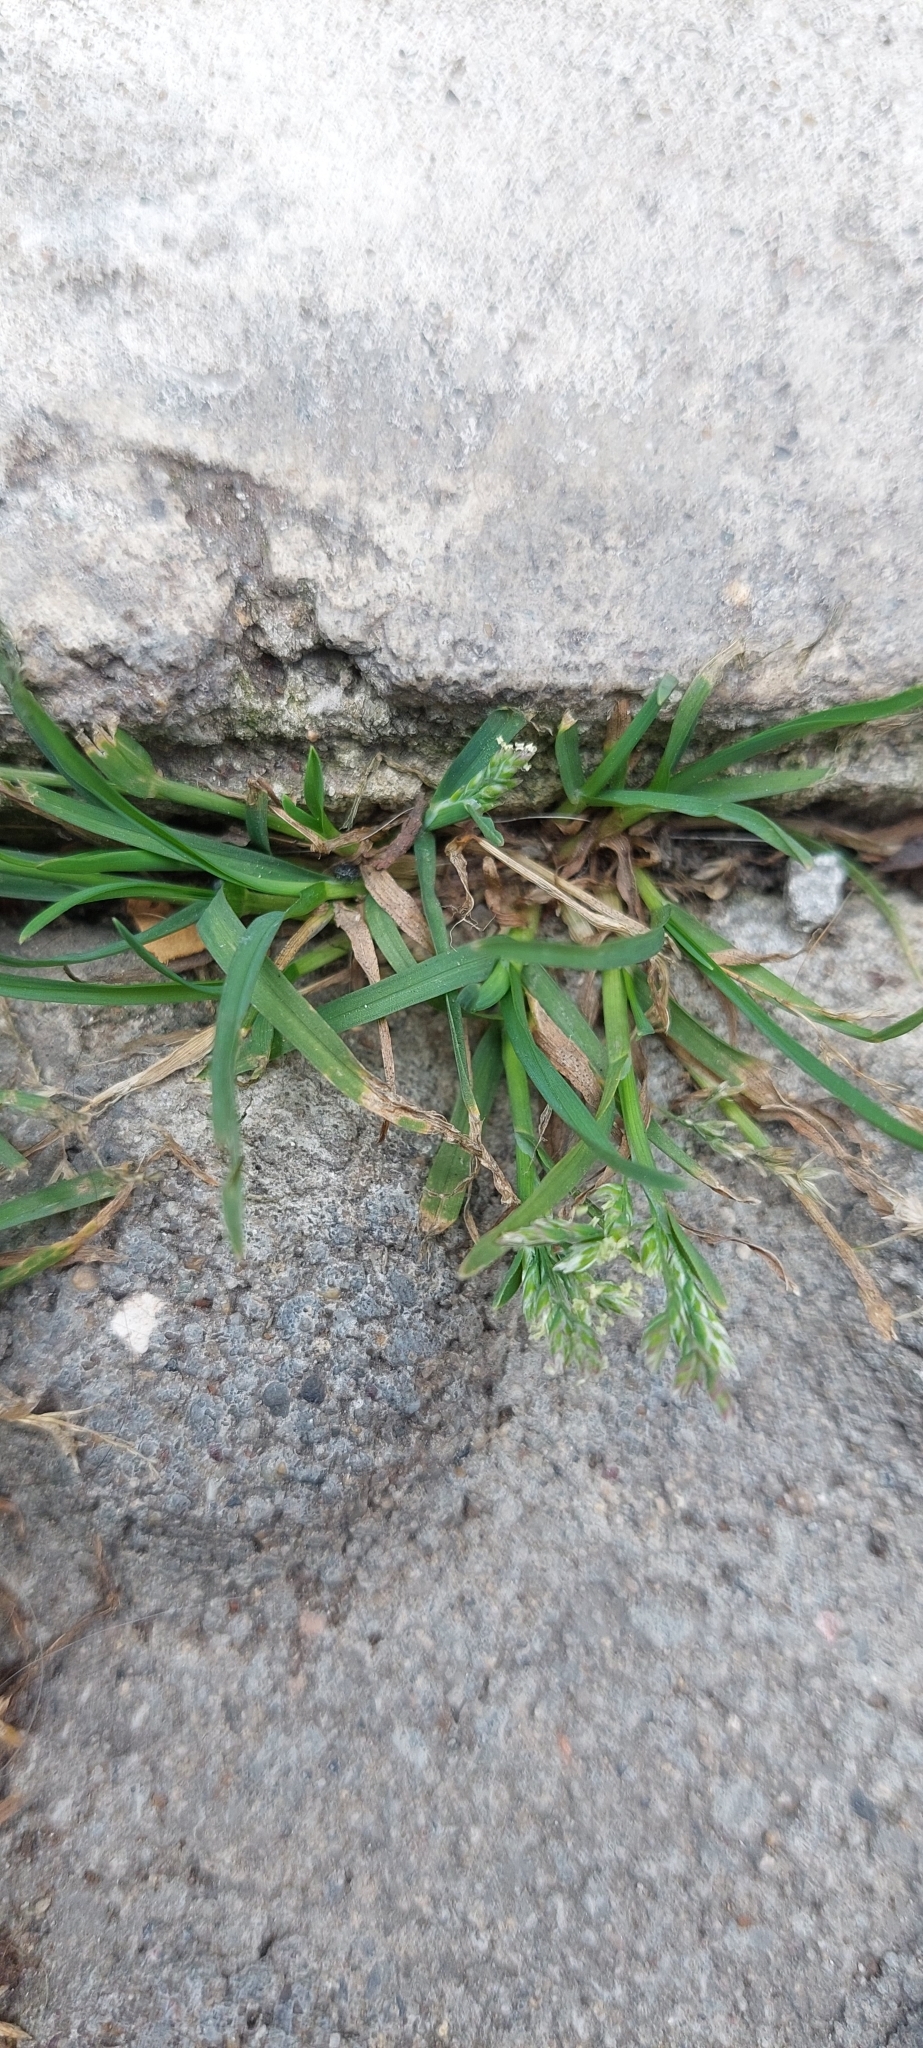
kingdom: Plantae
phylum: Tracheophyta
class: Liliopsida
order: Poales
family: Poaceae
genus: Poa
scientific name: Poa annua
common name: Annual bluegrass
